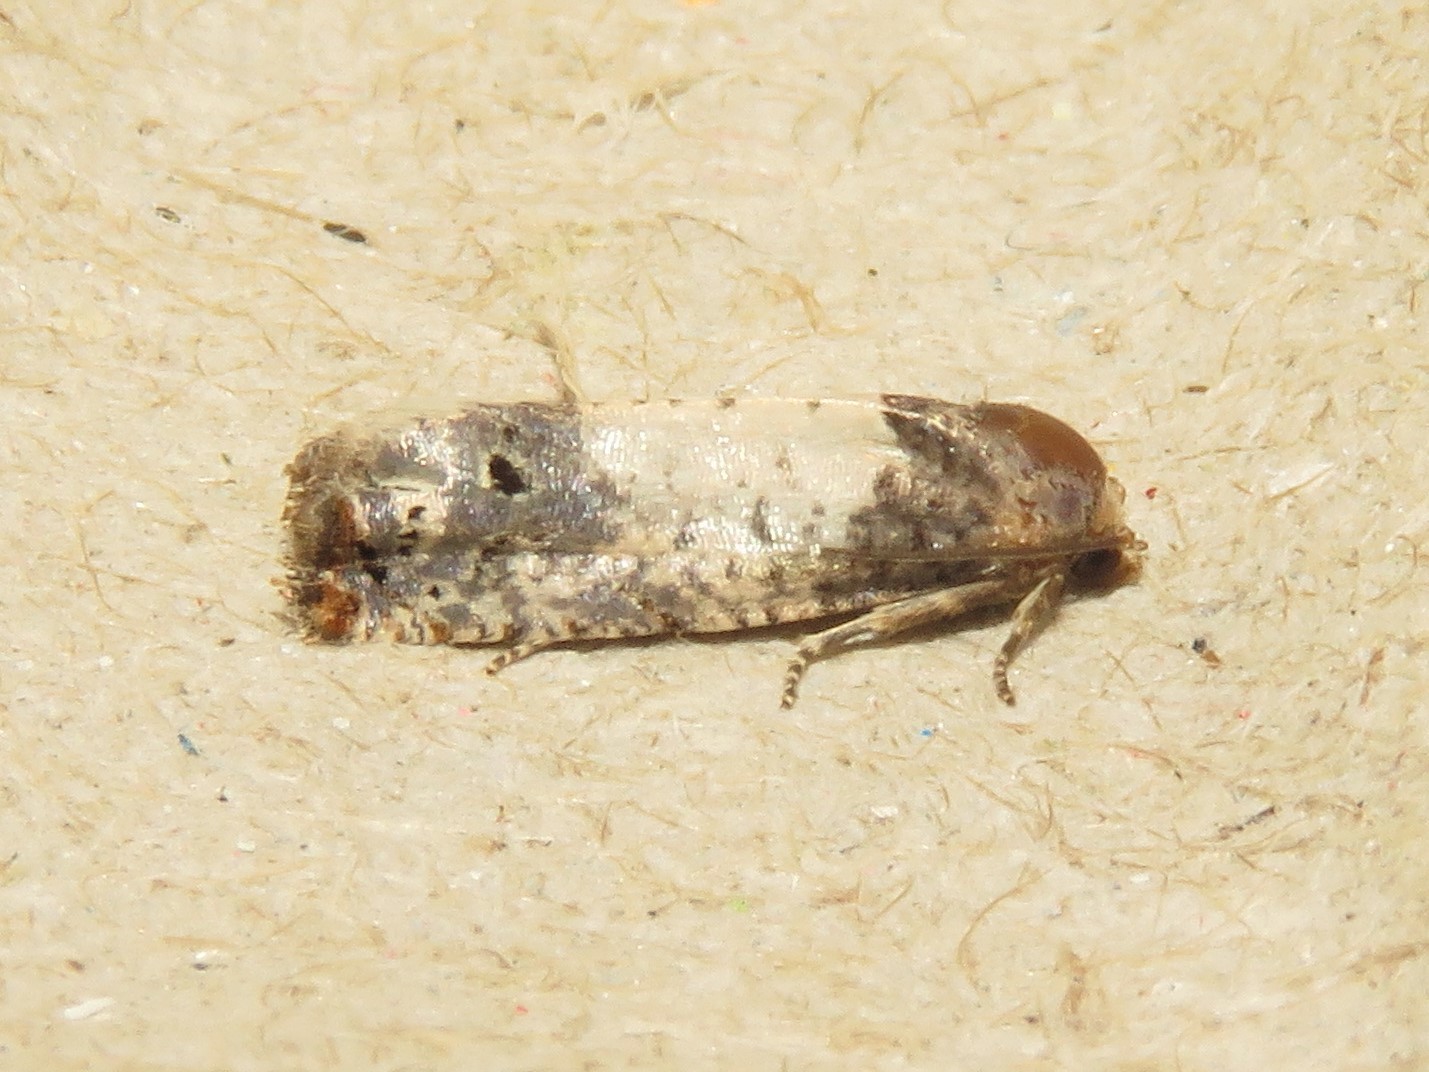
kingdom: Animalia
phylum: Arthropoda
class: Insecta
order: Lepidoptera
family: Tortricidae
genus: Epiblema
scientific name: Epiblema scudderiana
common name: Goldenrod gall moth
